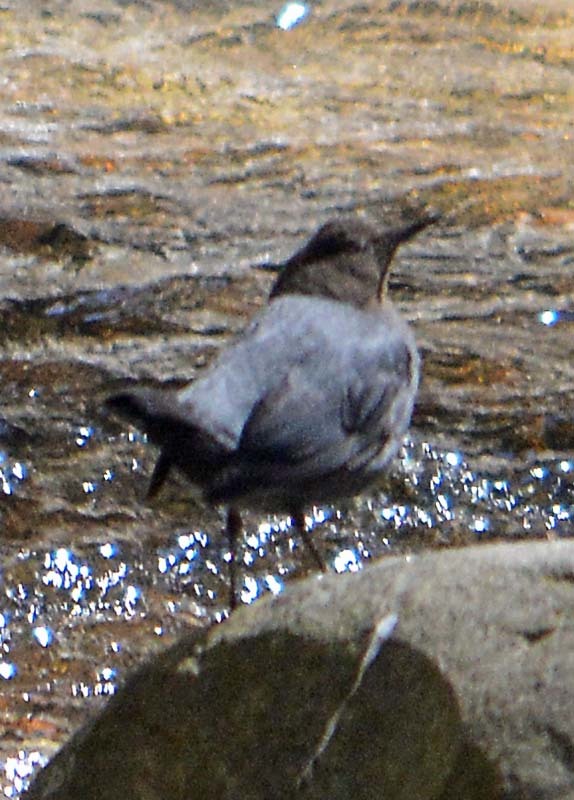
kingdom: Animalia
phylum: Chordata
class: Aves
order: Passeriformes
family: Cinclidae
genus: Cinclus
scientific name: Cinclus mexicanus
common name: American dipper
